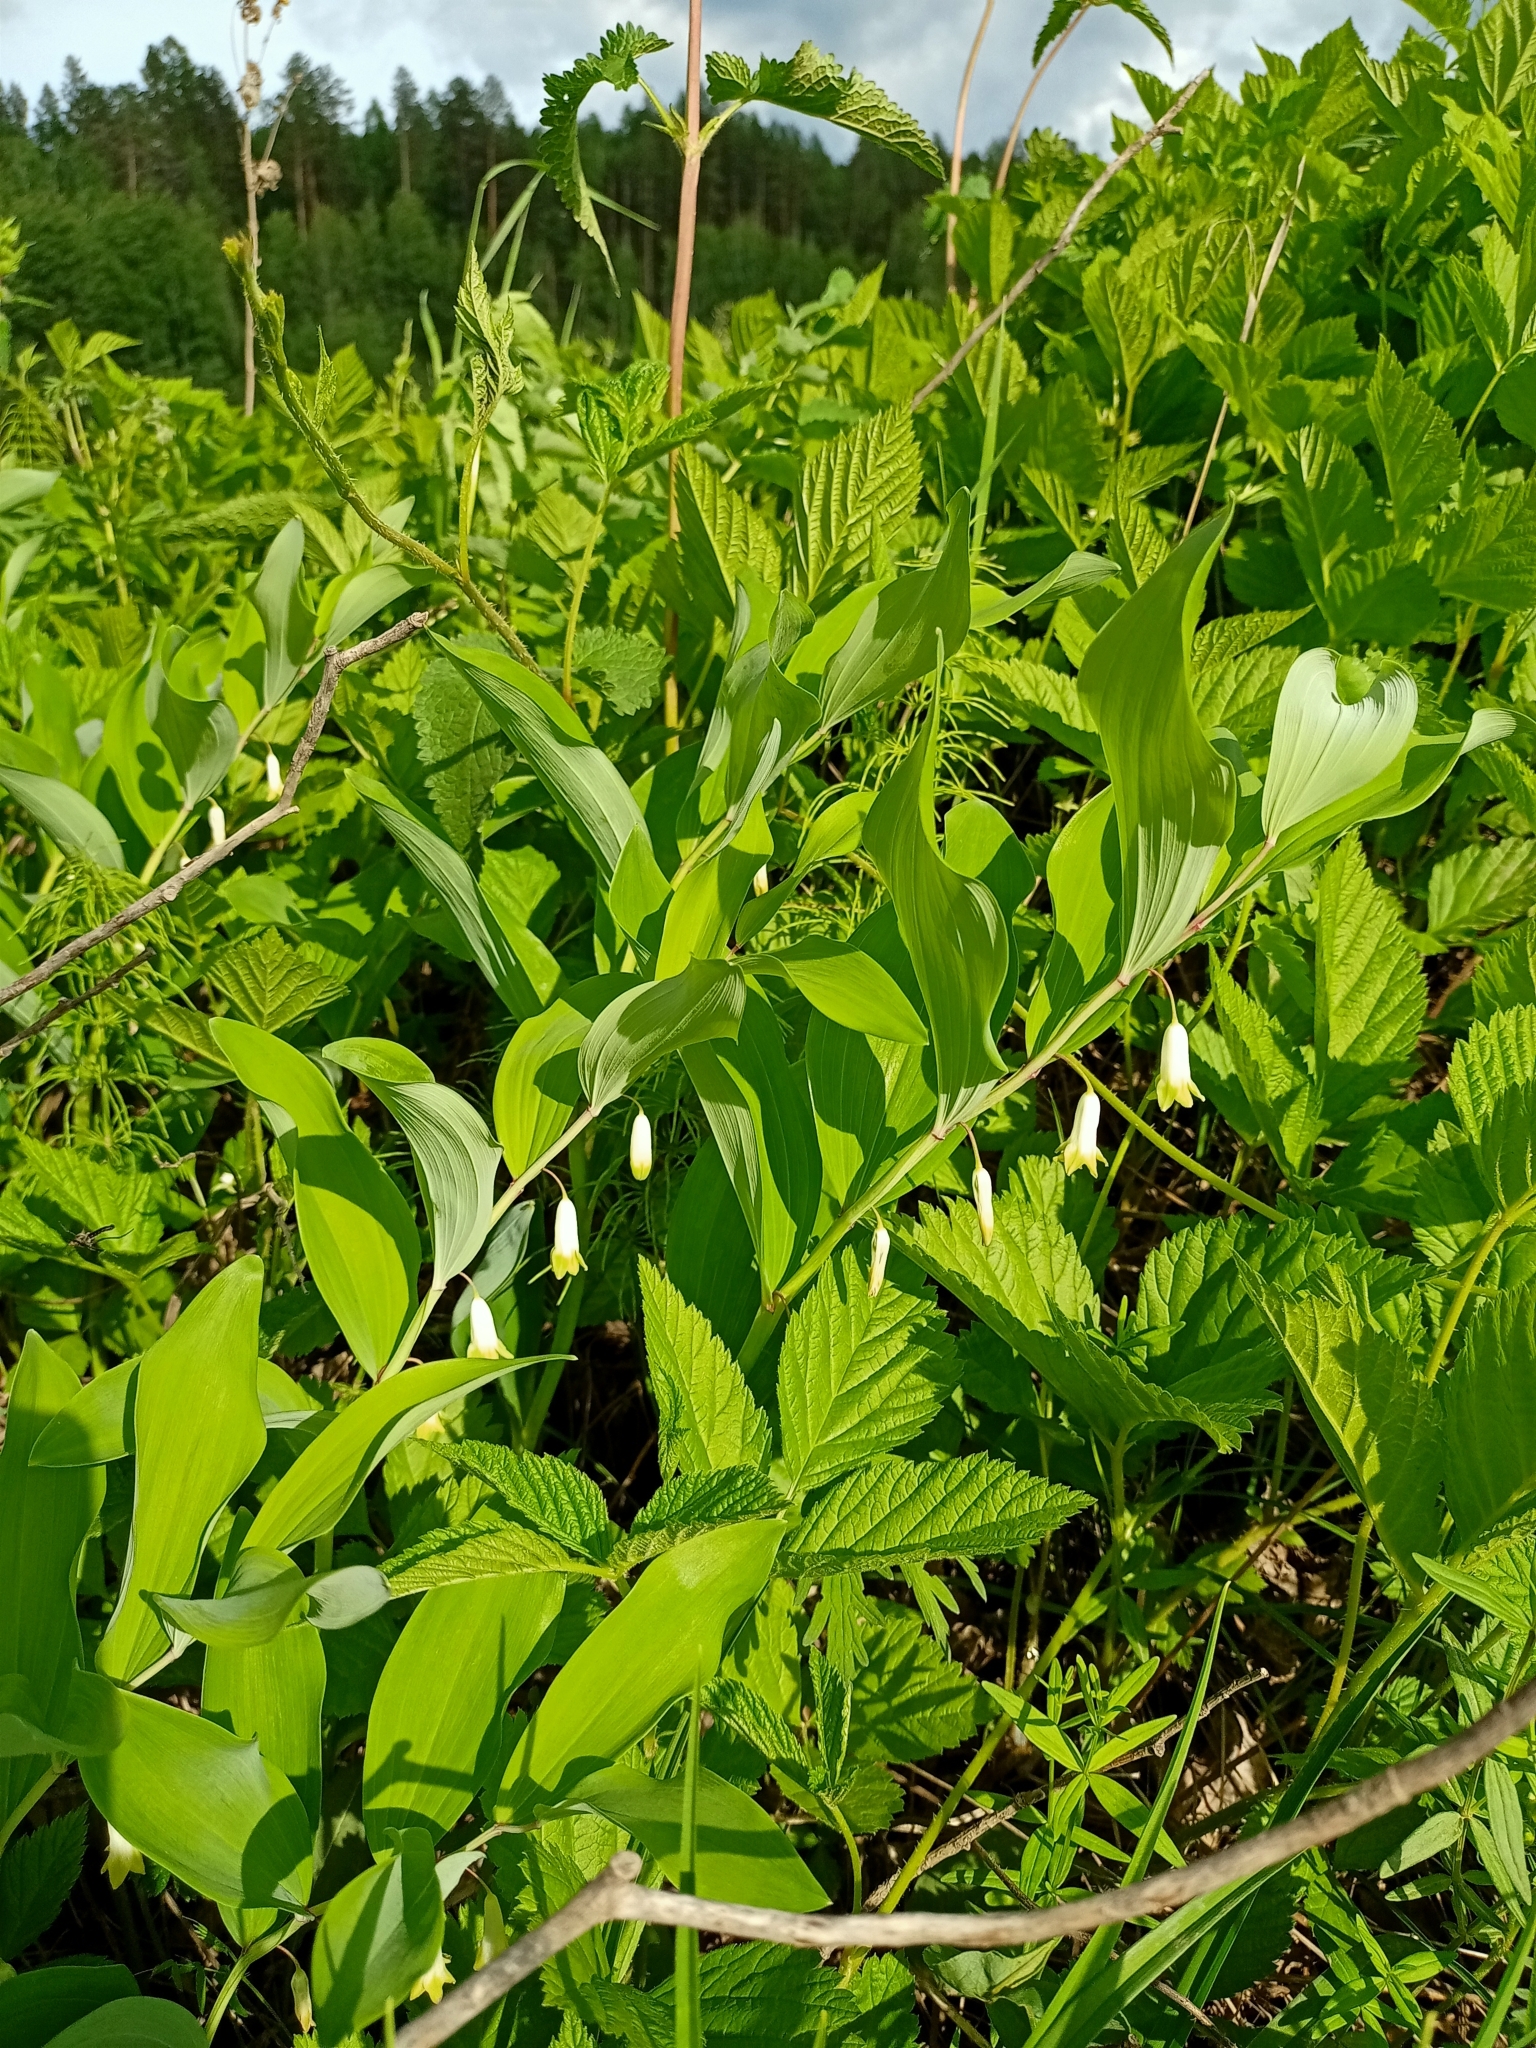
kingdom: Plantae
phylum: Tracheophyta
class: Liliopsida
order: Asparagales
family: Asparagaceae
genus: Polygonatum
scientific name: Polygonatum odoratum
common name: Angular solomon's-seal
